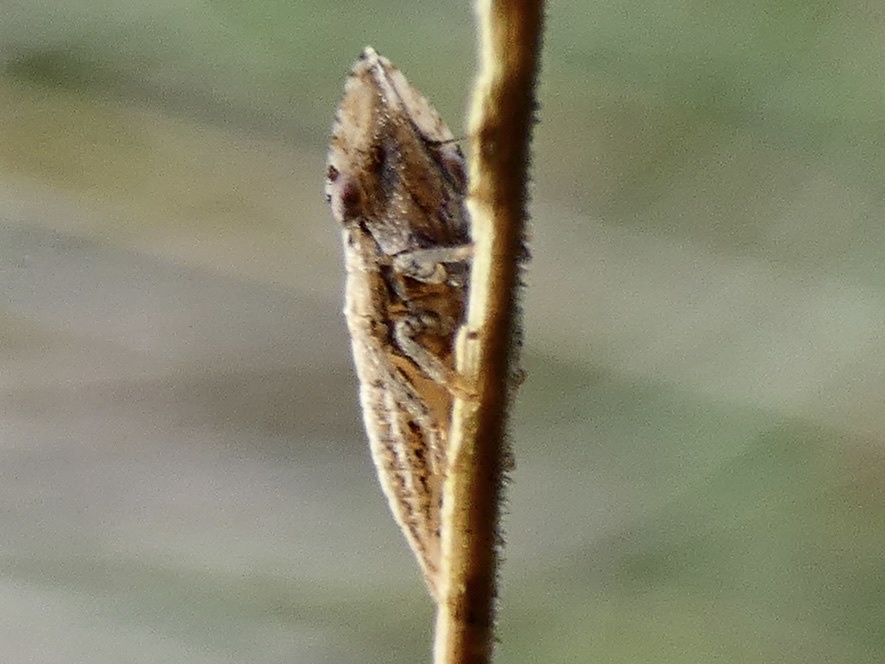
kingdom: Animalia
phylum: Arthropoda
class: Insecta
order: Hemiptera
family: Cicadellidae
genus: Eupelix
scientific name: Eupelix cuspidata
